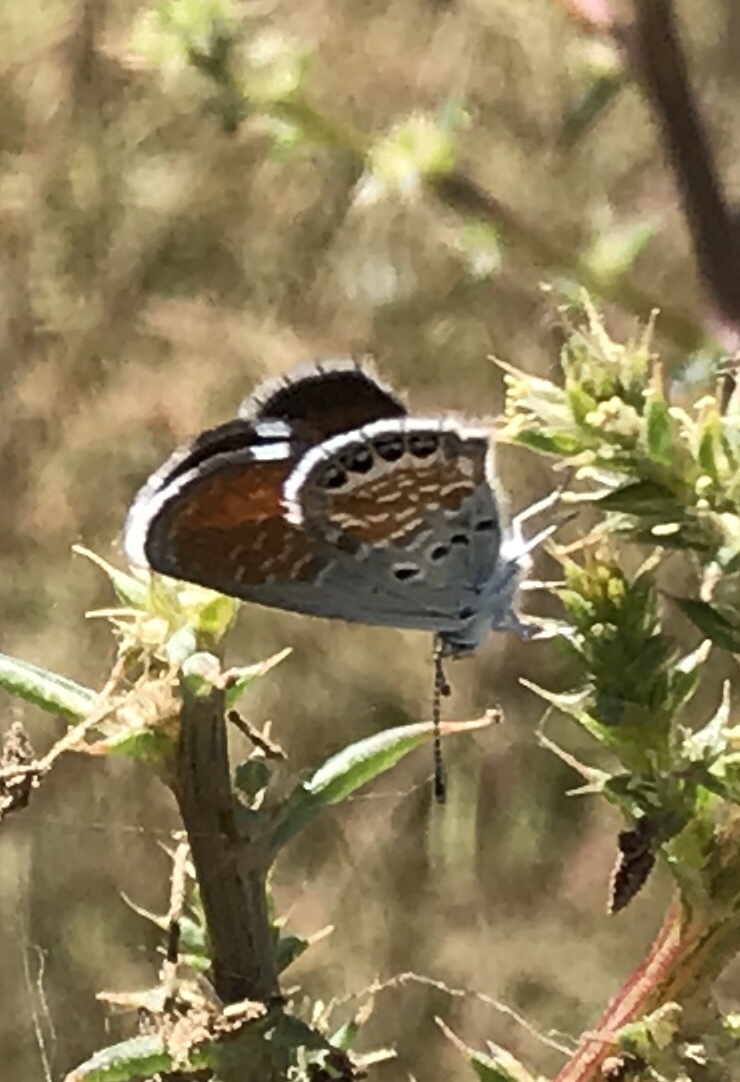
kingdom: Animalia
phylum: Arthropoda
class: Insecta
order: Lepidoptera
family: Lycaenidae
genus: Brephidium
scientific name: Brephidium exilis
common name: Pygmy blue
